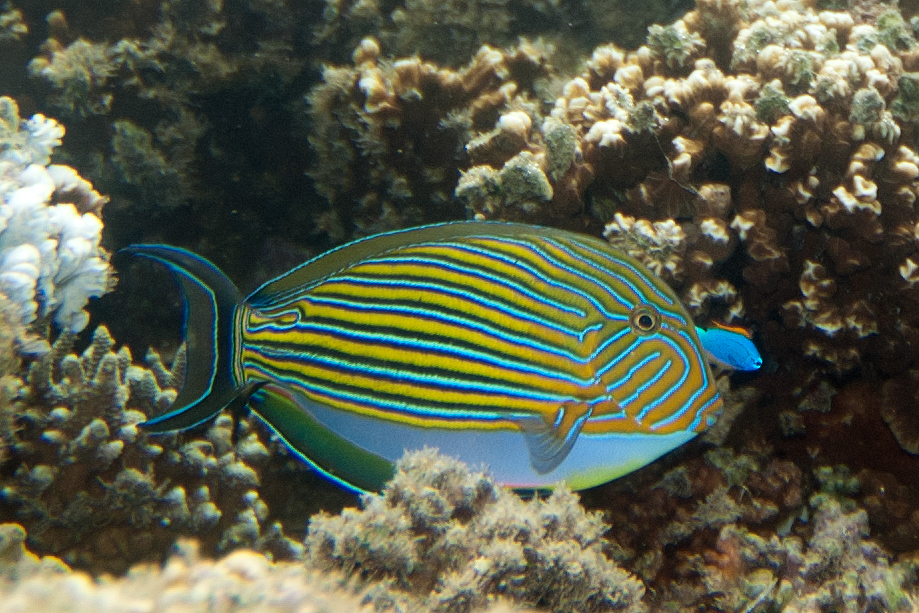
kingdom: Animalia
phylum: Chordata
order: Perciformes
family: Acanthuridae
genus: Acanthurus
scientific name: Acanthurus lineatus
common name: Striped surgeonfish
